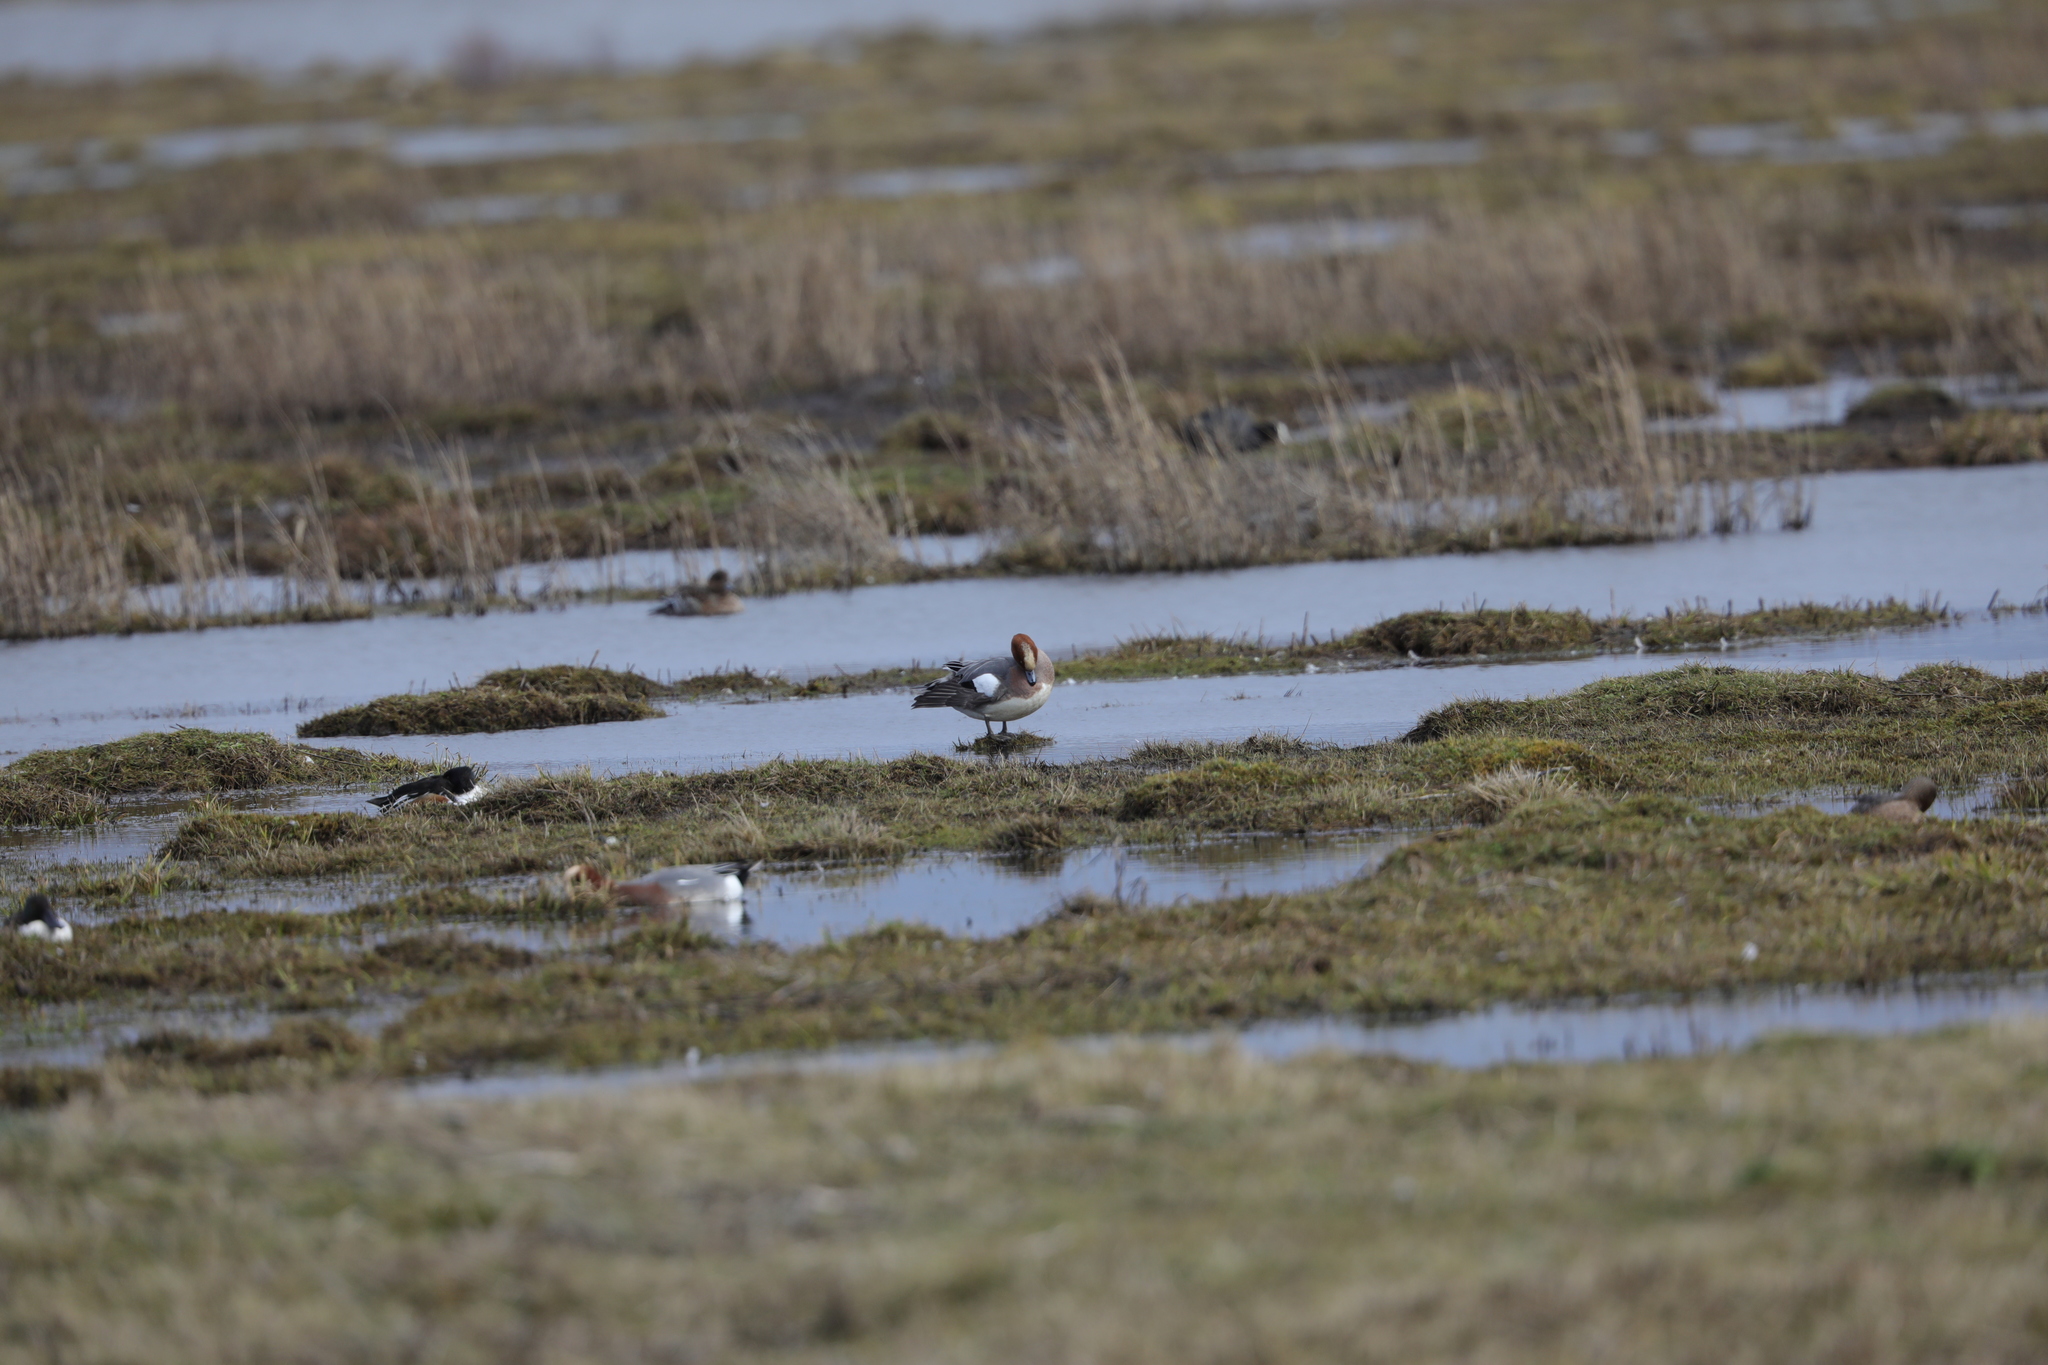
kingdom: Animalia
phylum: Chordata
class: Aves
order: Anseriformes
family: Anatidae
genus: Mareca
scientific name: Mareca penelope
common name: Eurasian wigeon
